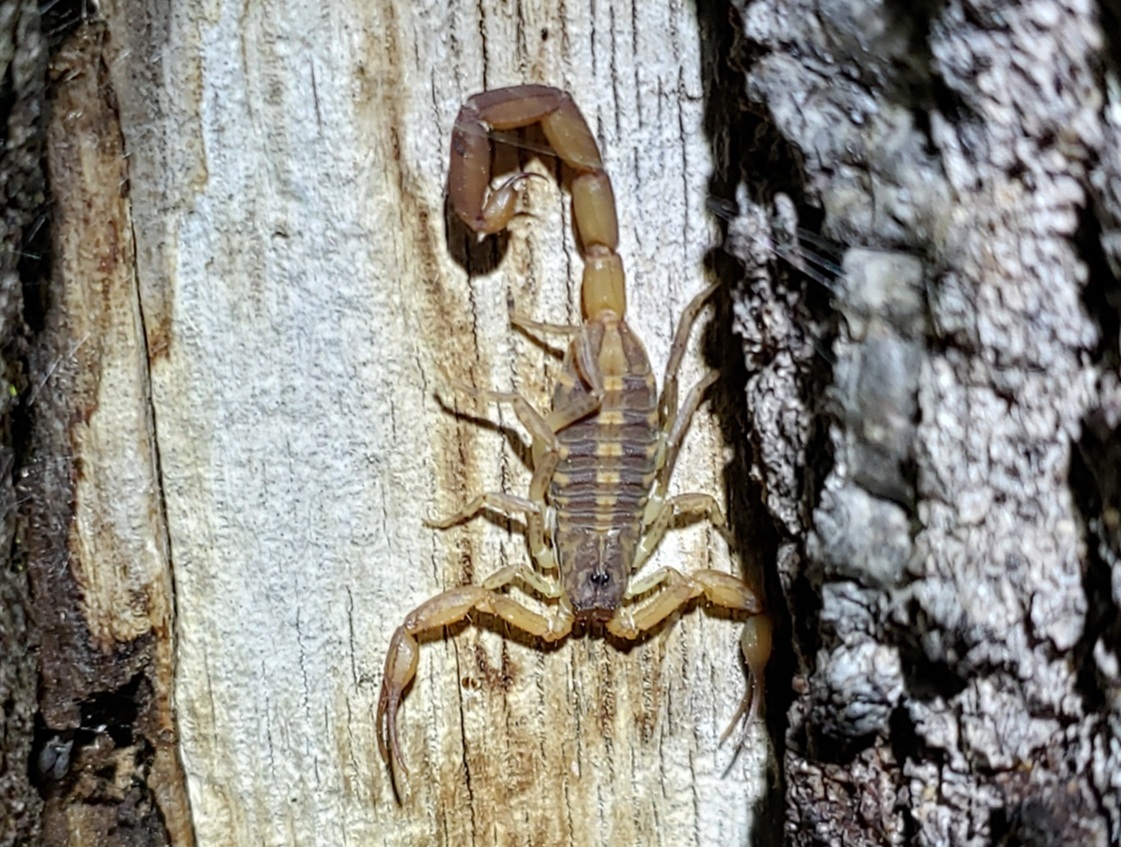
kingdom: Animalia
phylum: Arthropoda
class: Arachnida
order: Scorpiones
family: Buthidae
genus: Centruroides
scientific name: Centruroides hentzi
